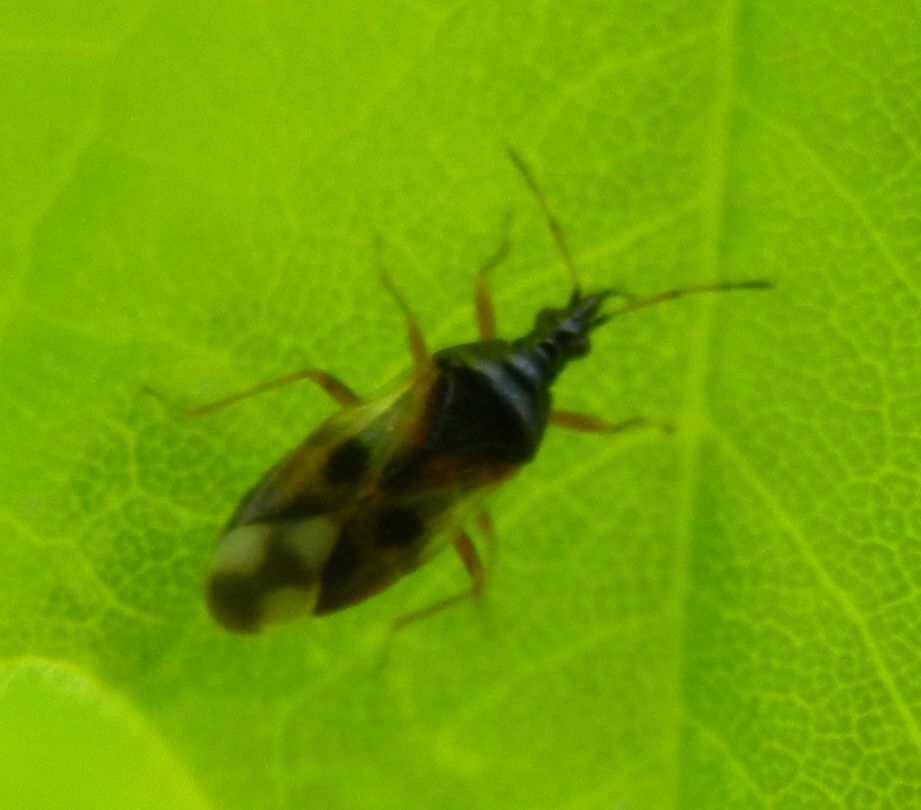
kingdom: Animalia
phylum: Arthropoda
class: Insecta
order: Hemiptera
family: Anthocoridae
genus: Anthocoris
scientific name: Anthocoris nemorum
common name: Minute pirate bug
